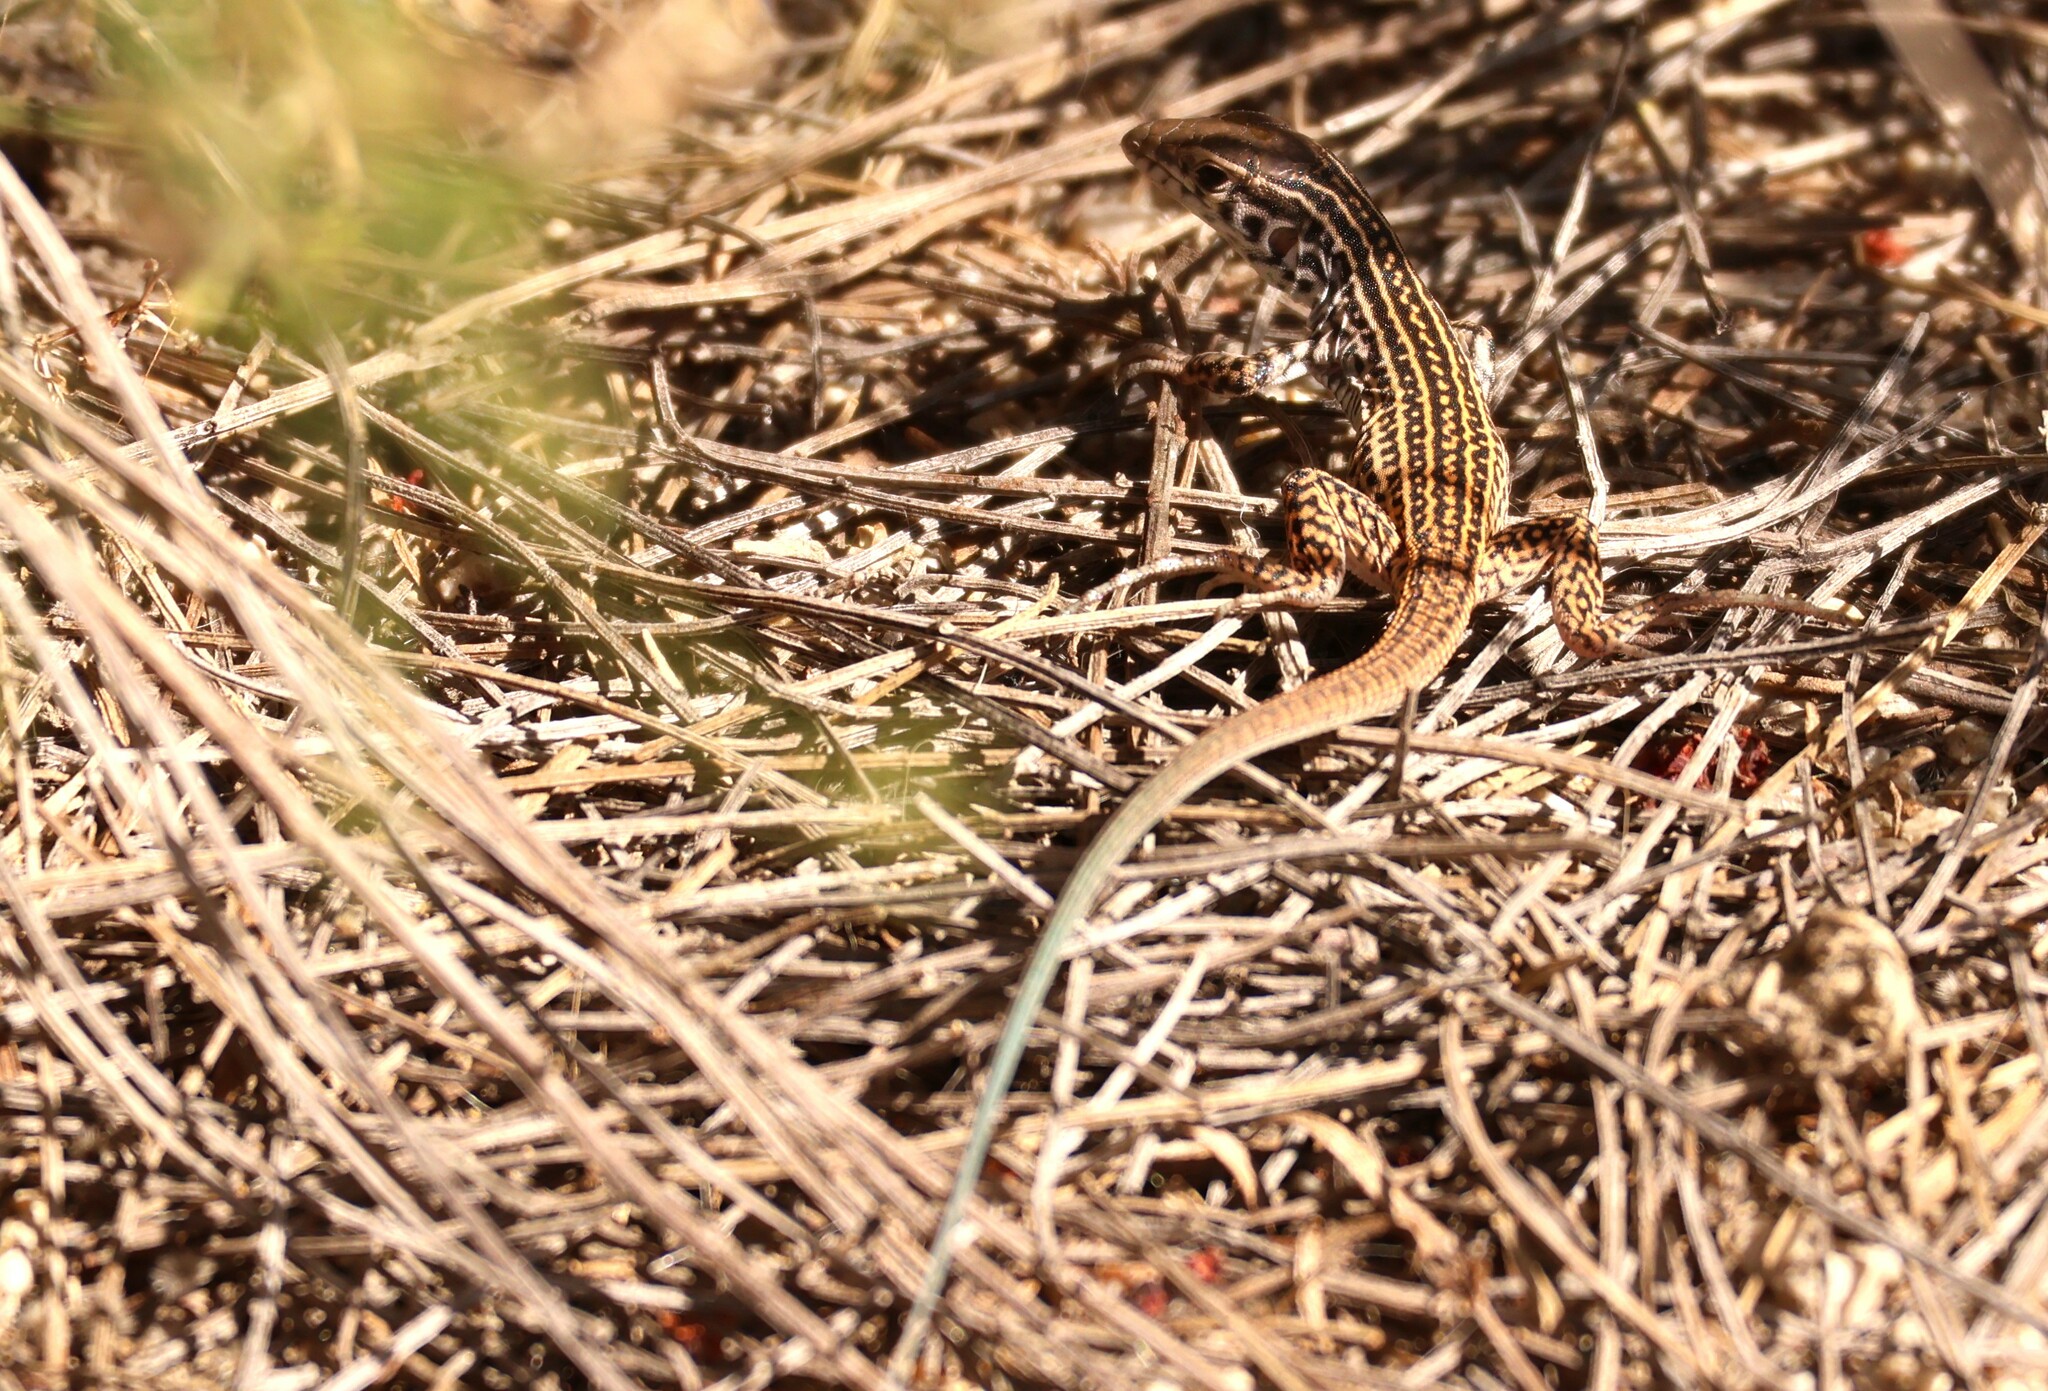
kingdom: Animalia
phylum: Chordata
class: Squamata
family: Teiidae
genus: Aspidoscelis
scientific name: Aspidoscelis tigris
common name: Tiger whiptail
